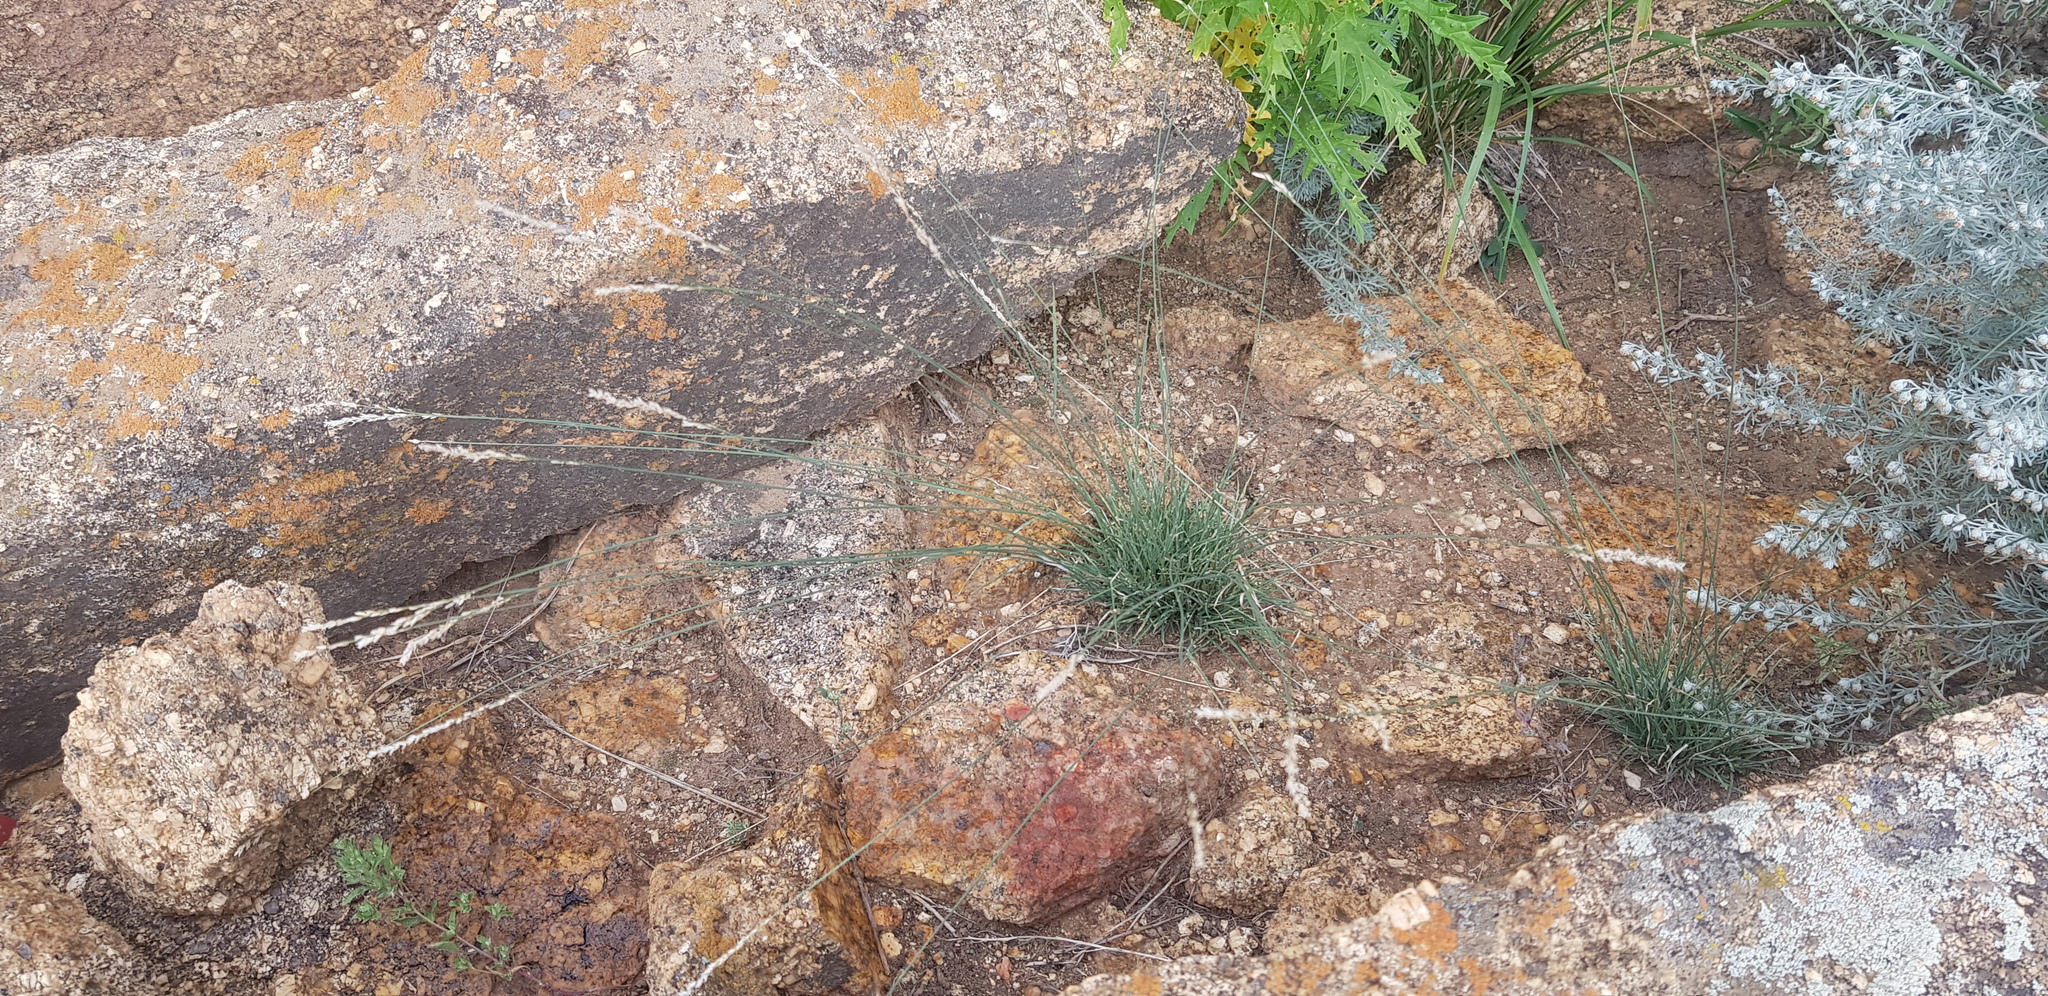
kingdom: Plantae
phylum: Tracheophyta
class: Liliopsida
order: Poales
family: Poaceae
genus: Festuca
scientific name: Festuca rubra
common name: Red fescue
